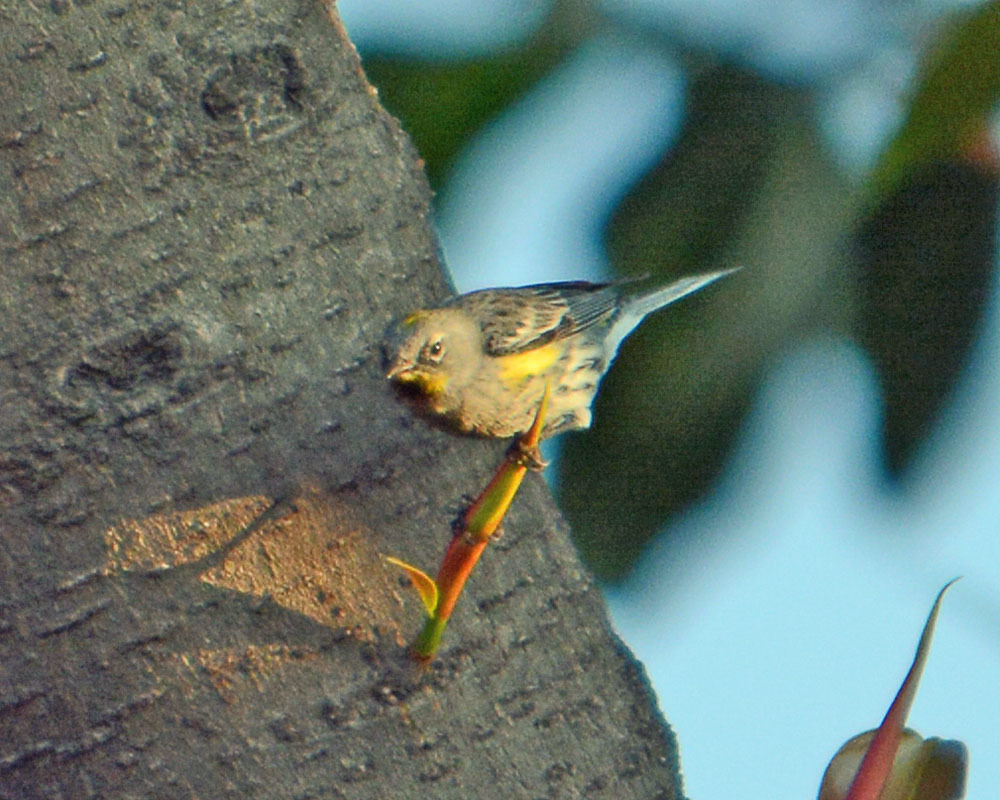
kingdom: Animalia
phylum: Chordata
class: Aves
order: Passeriformes
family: Parulidae
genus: Setophaga
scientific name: Setophaga coronata
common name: Myrtle warbler
